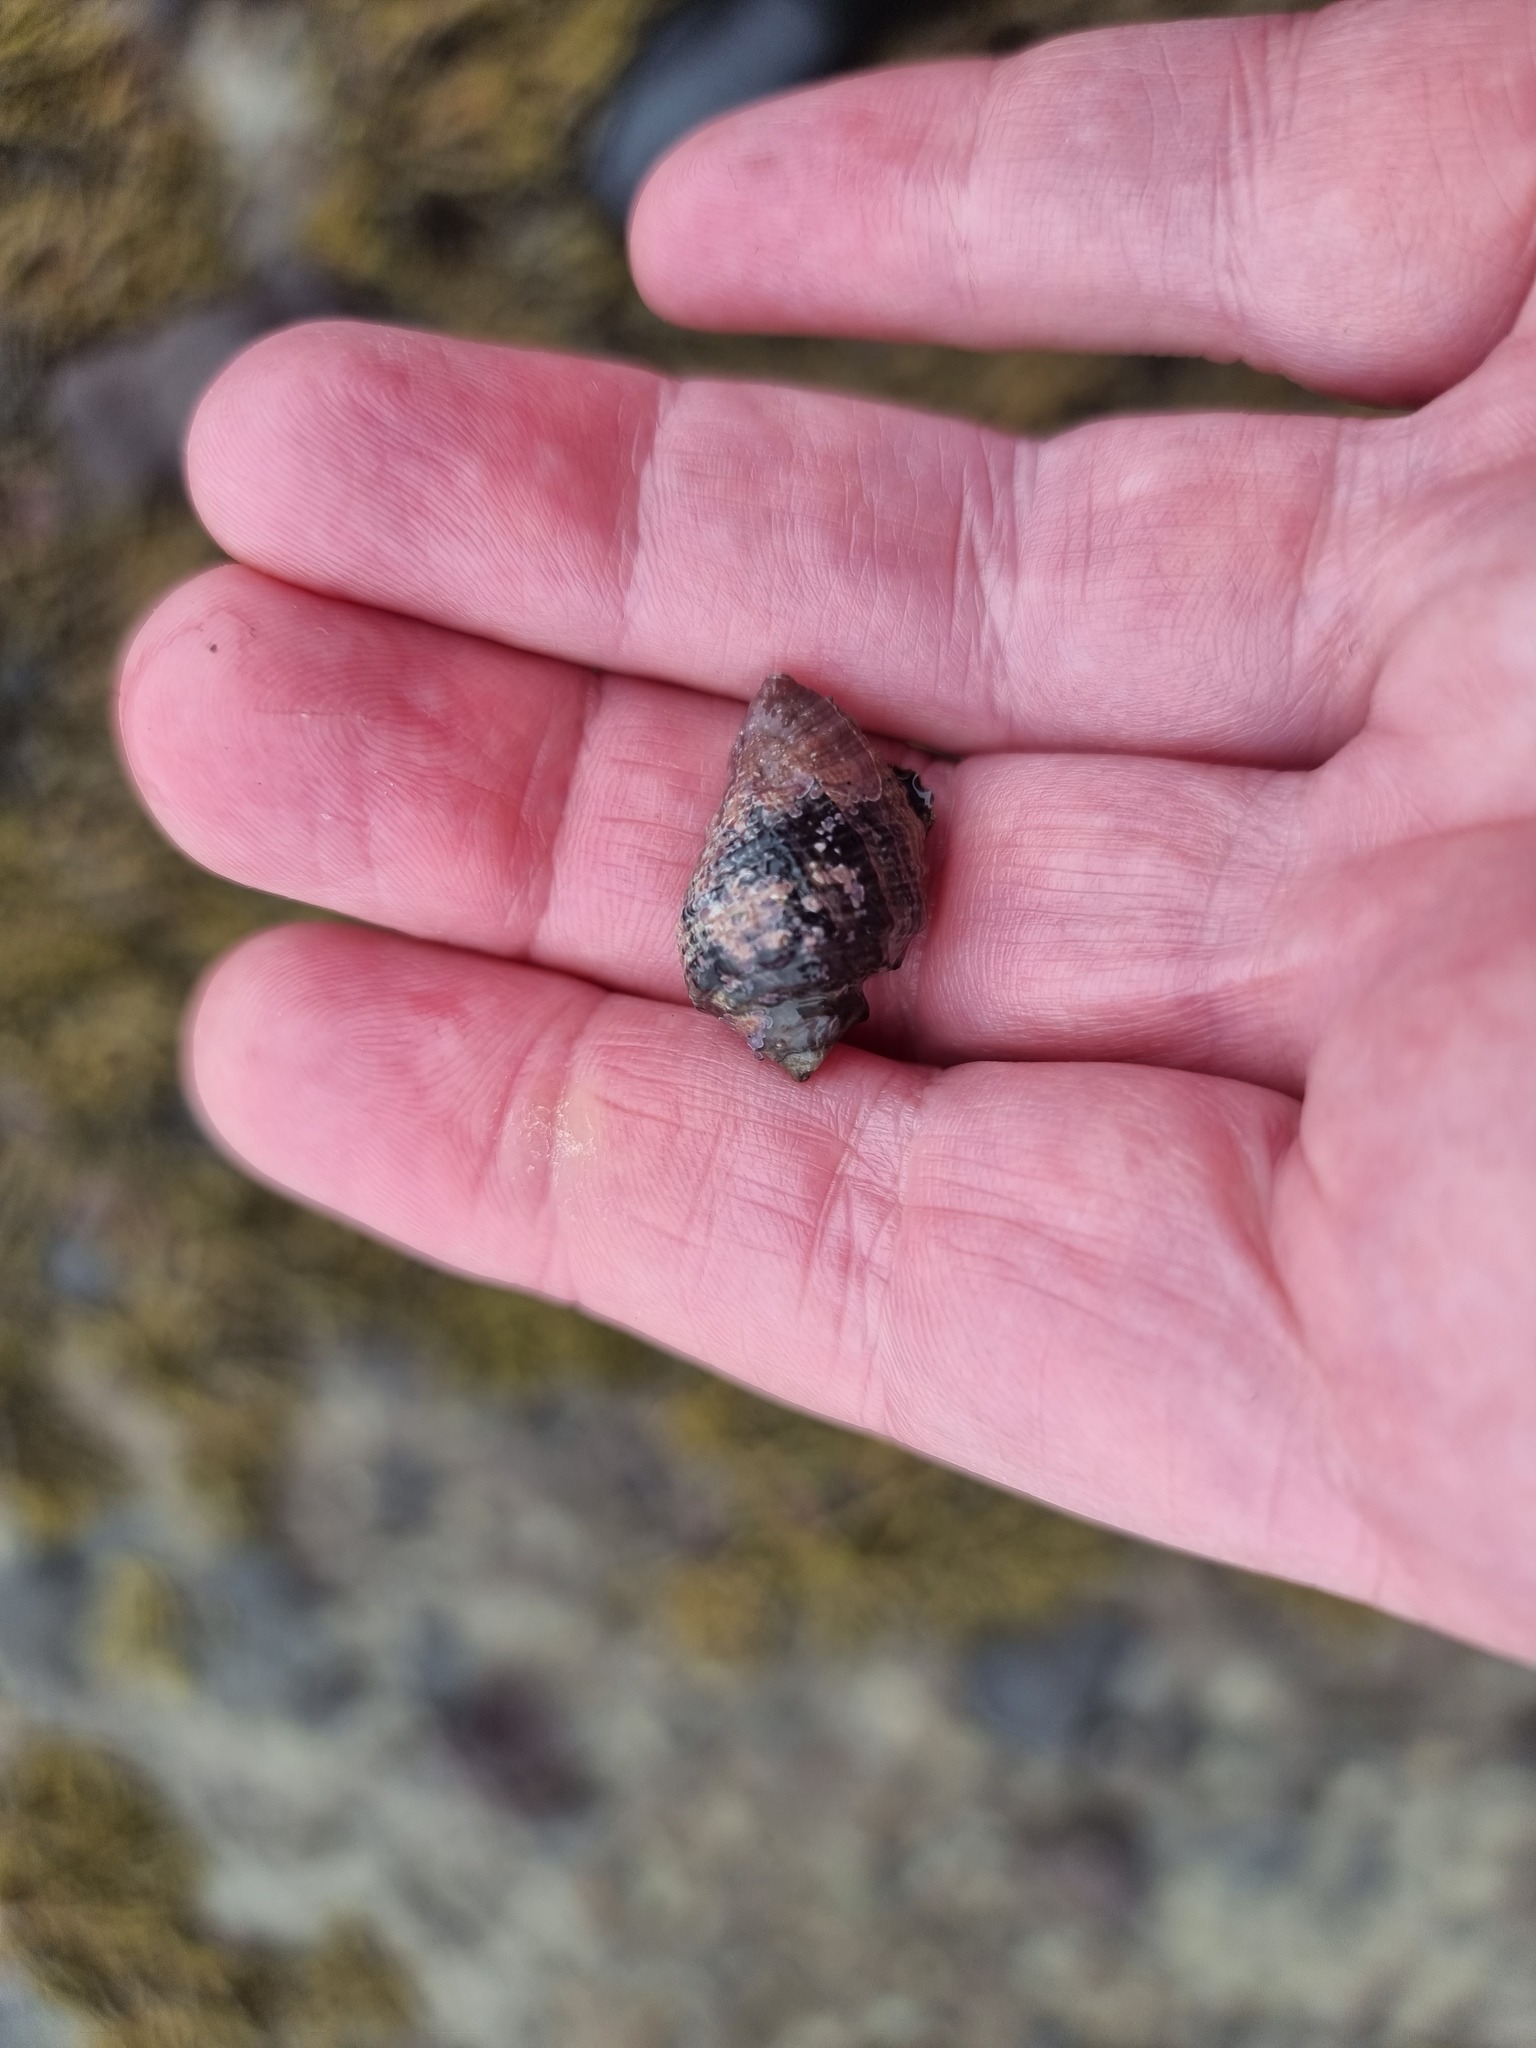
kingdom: Animalia
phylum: Mollusca
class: Gastropoda
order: Neogastropoda
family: Muricidae
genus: Haustrum
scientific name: Haustrum haustorium
